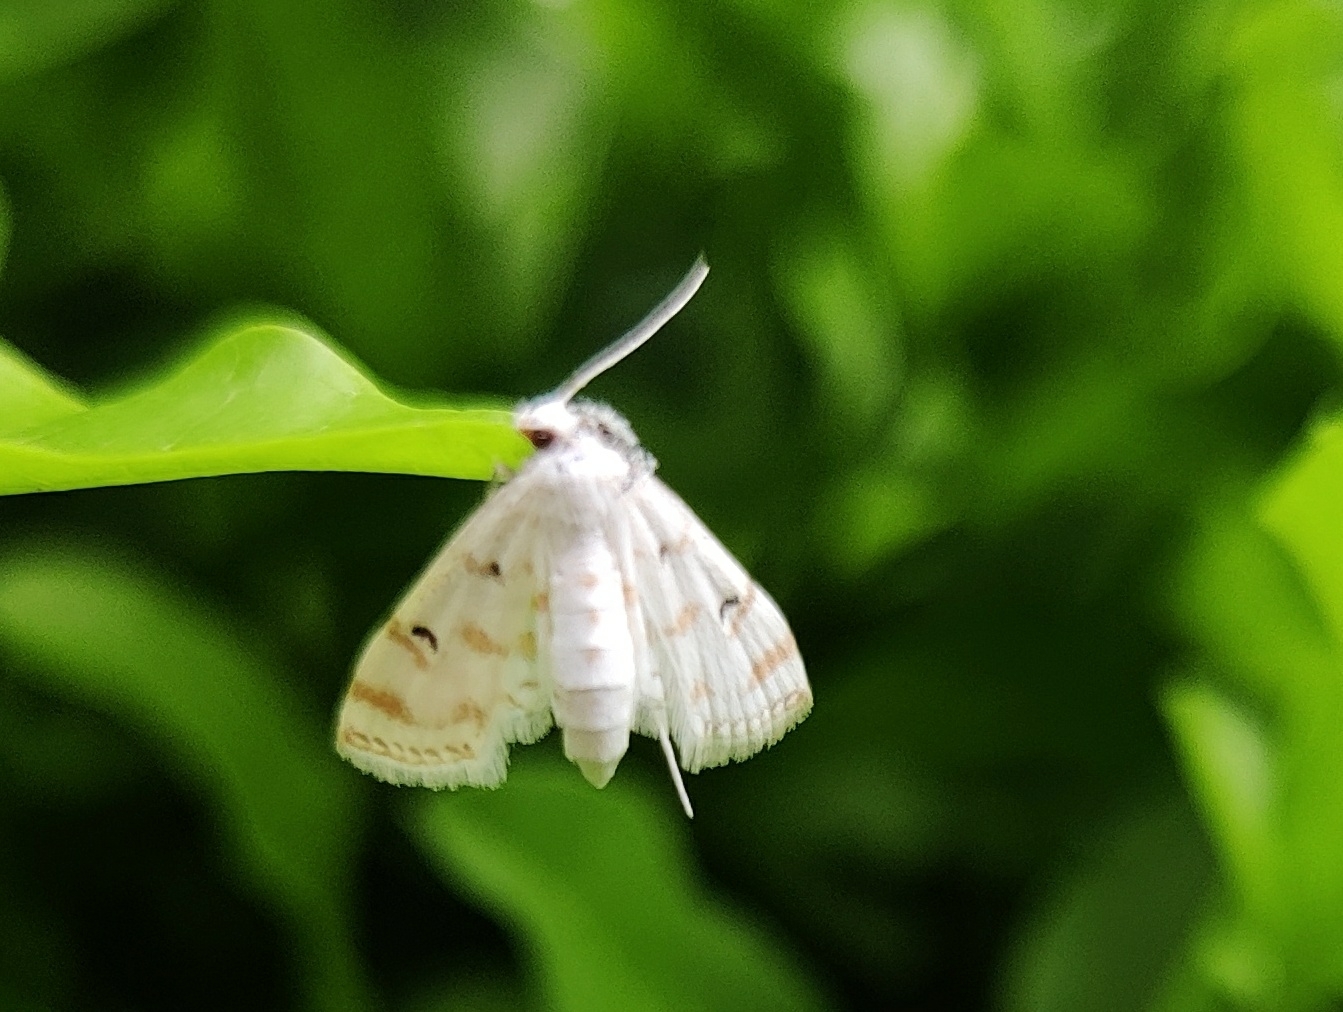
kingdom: Animalia
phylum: Arthropoda
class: Insecta
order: Lepidoptera
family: Crambidae
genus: Parapoynx
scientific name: Parapoynx stagnalis
